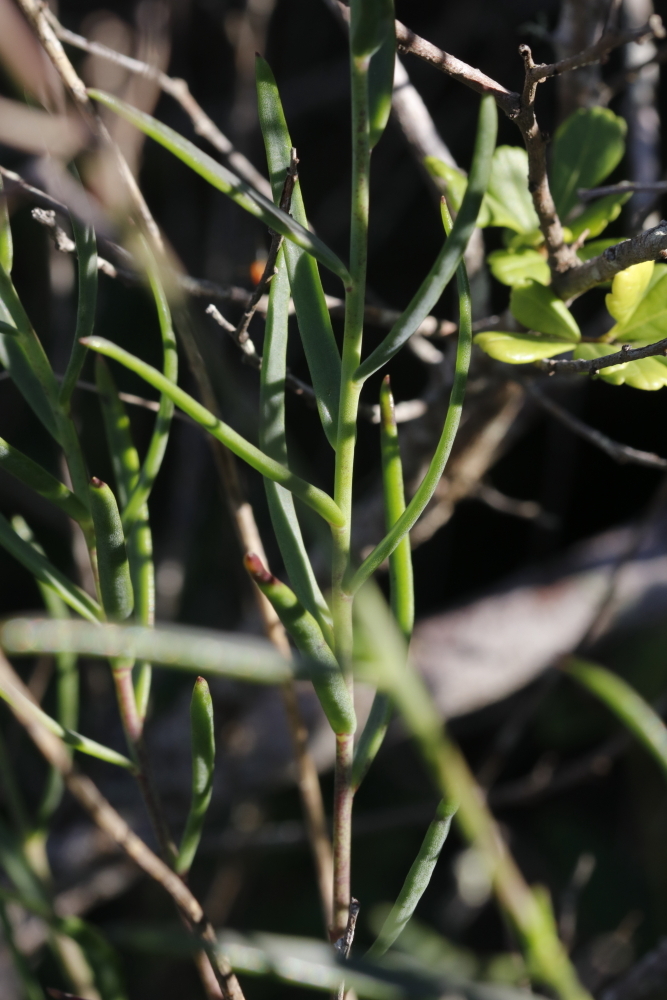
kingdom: Plantae
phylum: Tracheophyta
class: Magnoliopsida
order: Brassicales
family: Brassicaceae
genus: Heliophila
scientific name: Heliophila linearis
